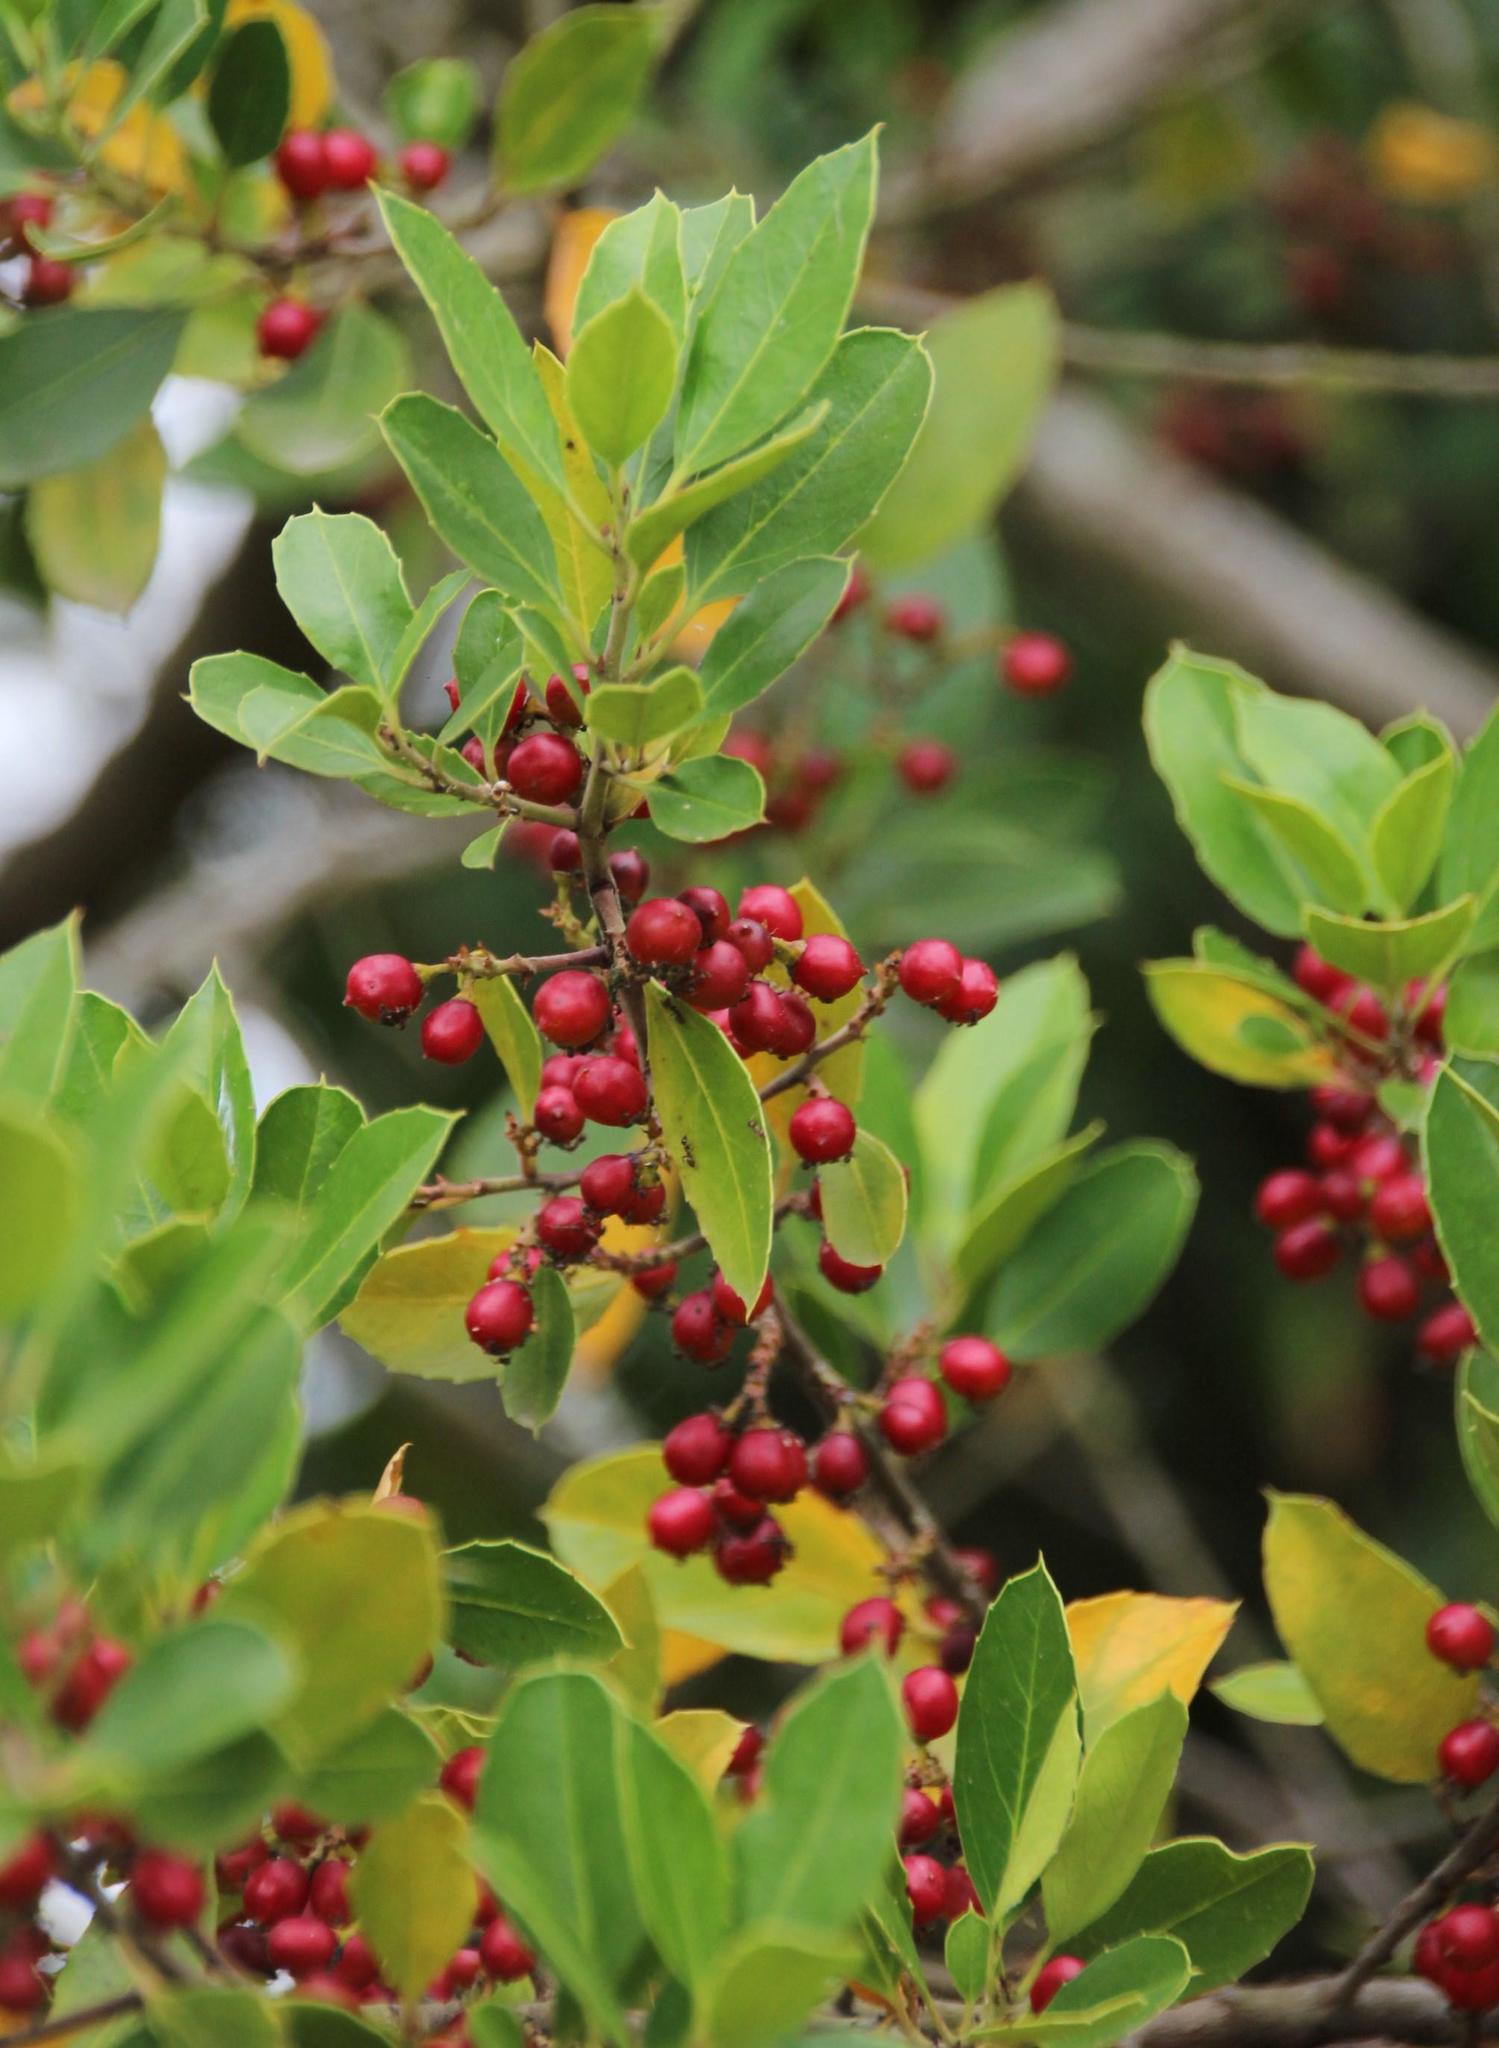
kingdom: Plantae
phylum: Tracheophyta
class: Magnoliopsida
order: Rosales
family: Rhamnaceae
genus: Rhamnus
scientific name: Rhamnus alaternus
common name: Mediterranean buckthorn
